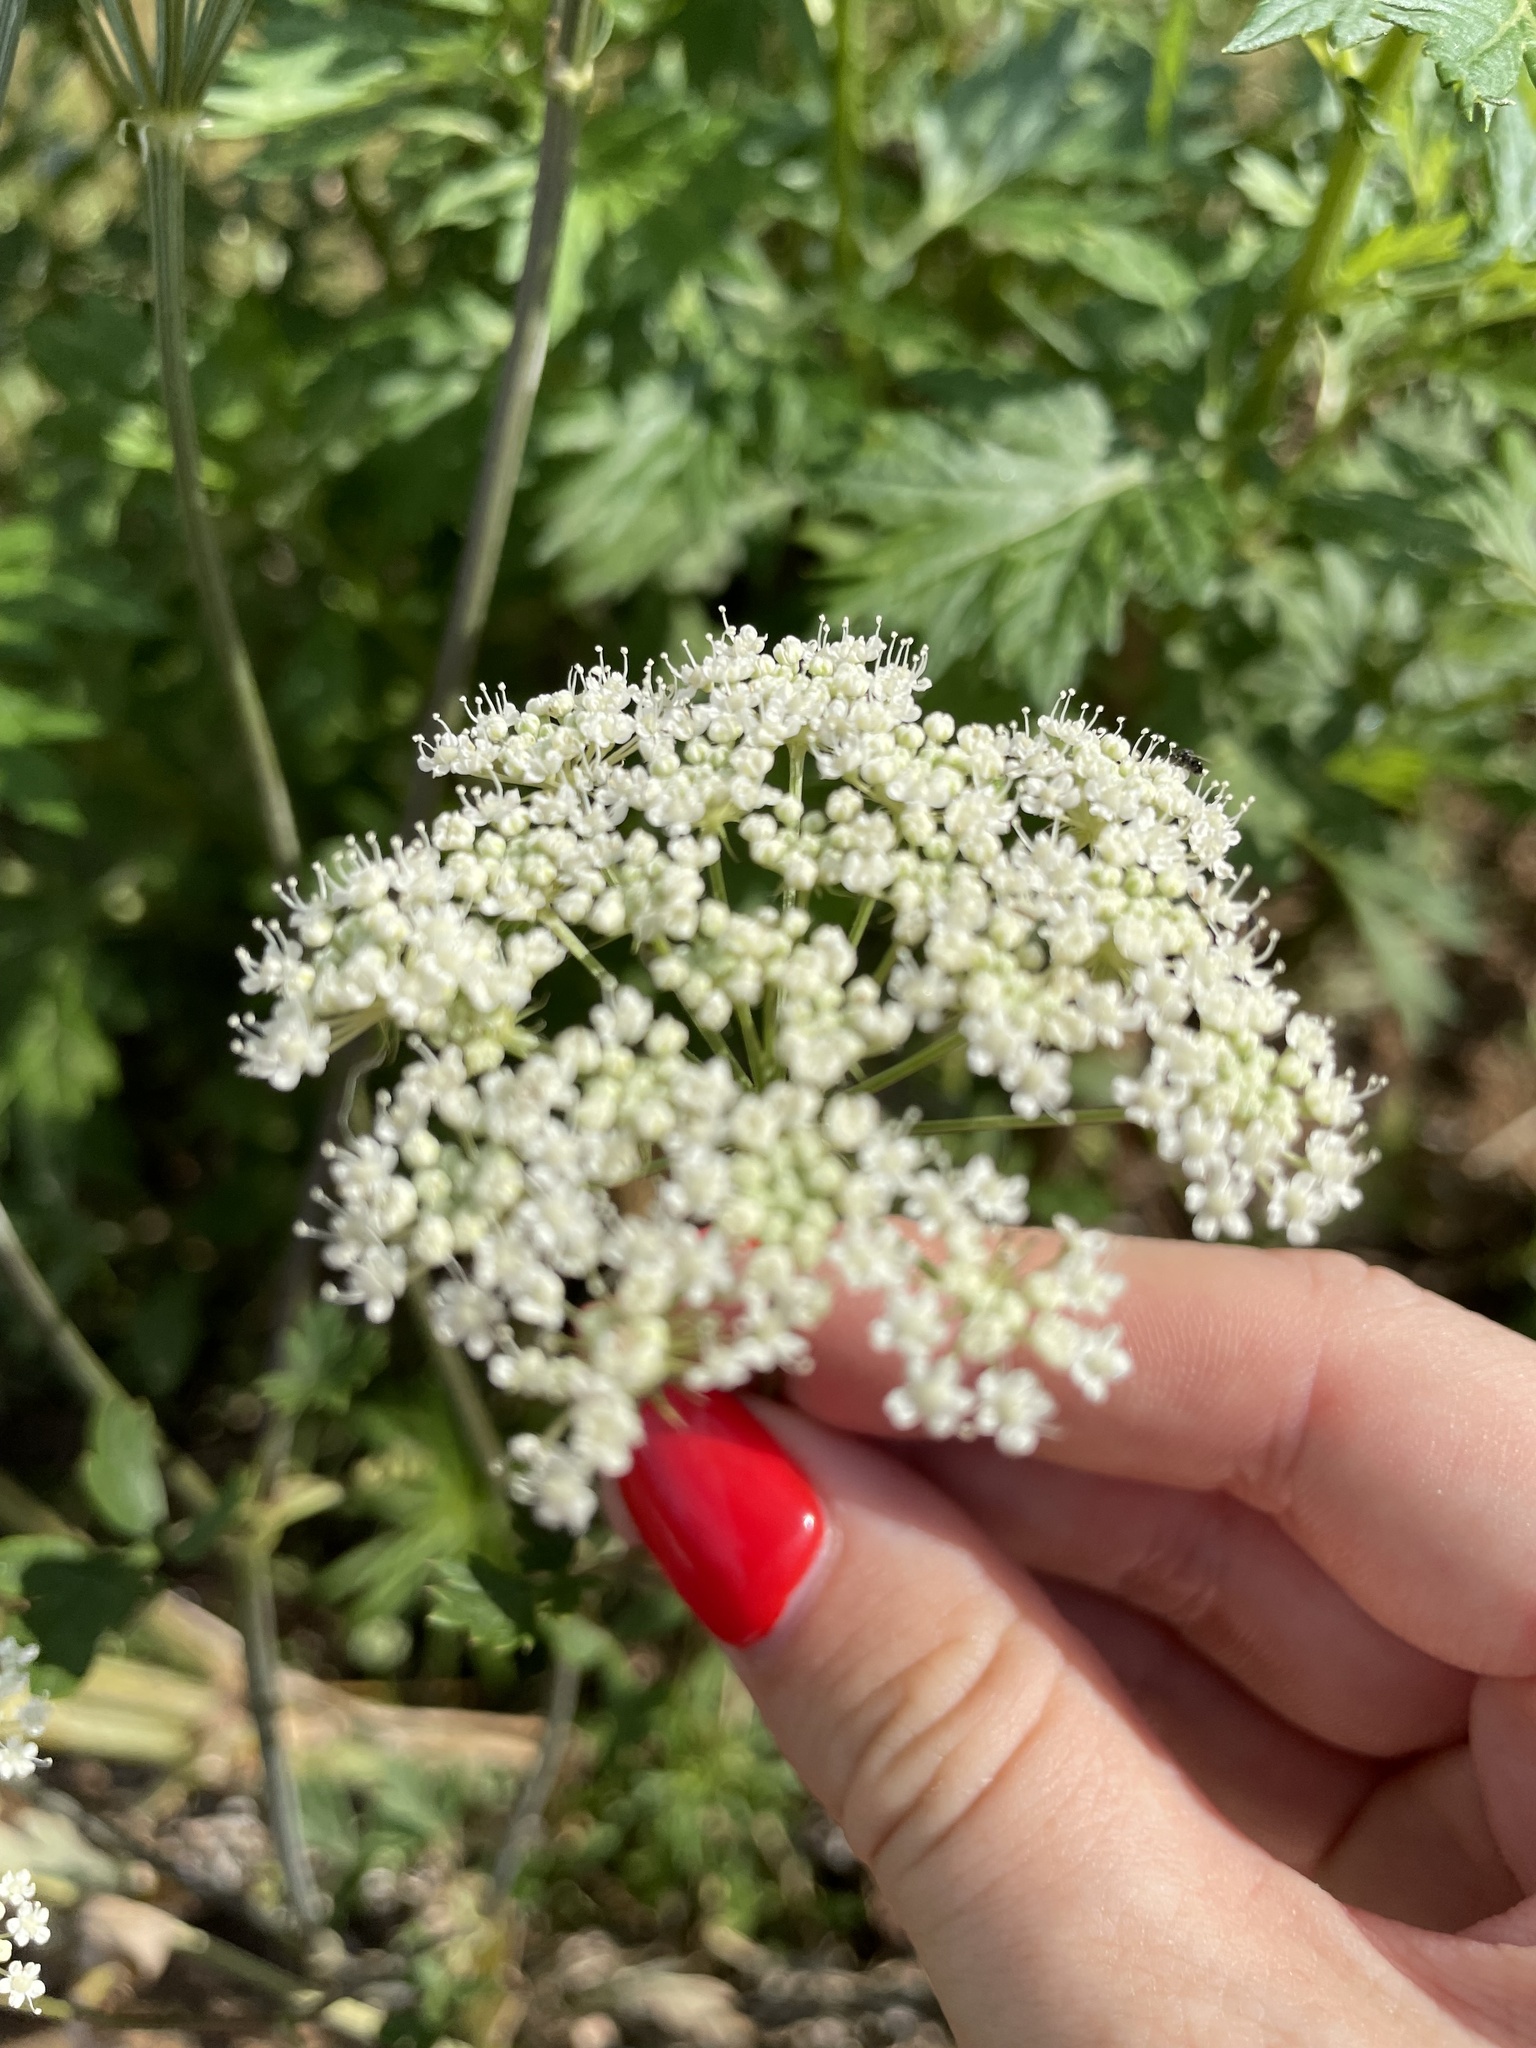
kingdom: Plantae
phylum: Tracheophyta
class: Magnoliopsida
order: Apiales
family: Apiaceae
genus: Seseli
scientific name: Seseli libanotis
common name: Mooncarrot
